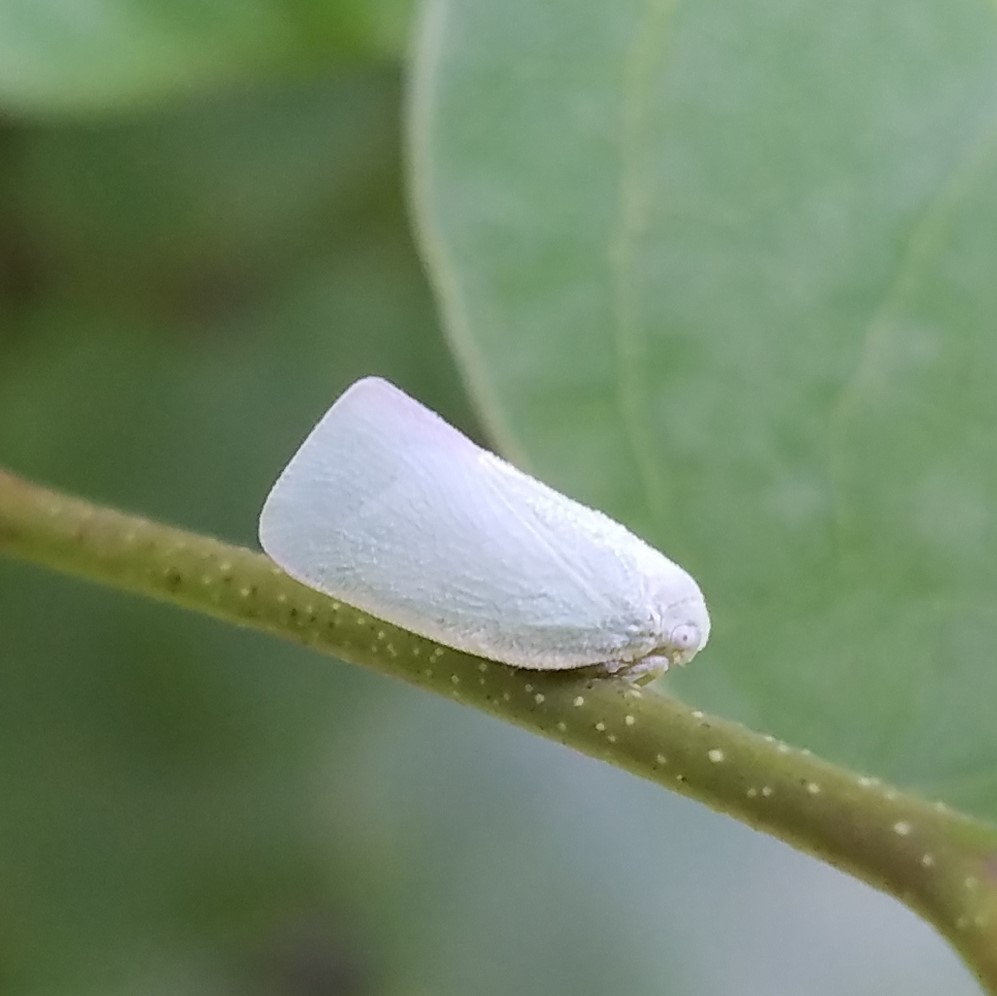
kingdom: Animalia
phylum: Arthropoda
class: Insecta
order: Hemiptera
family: Flatidae
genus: Flatormenis
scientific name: Flatormenis proxima
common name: Northern flatid planthopper
